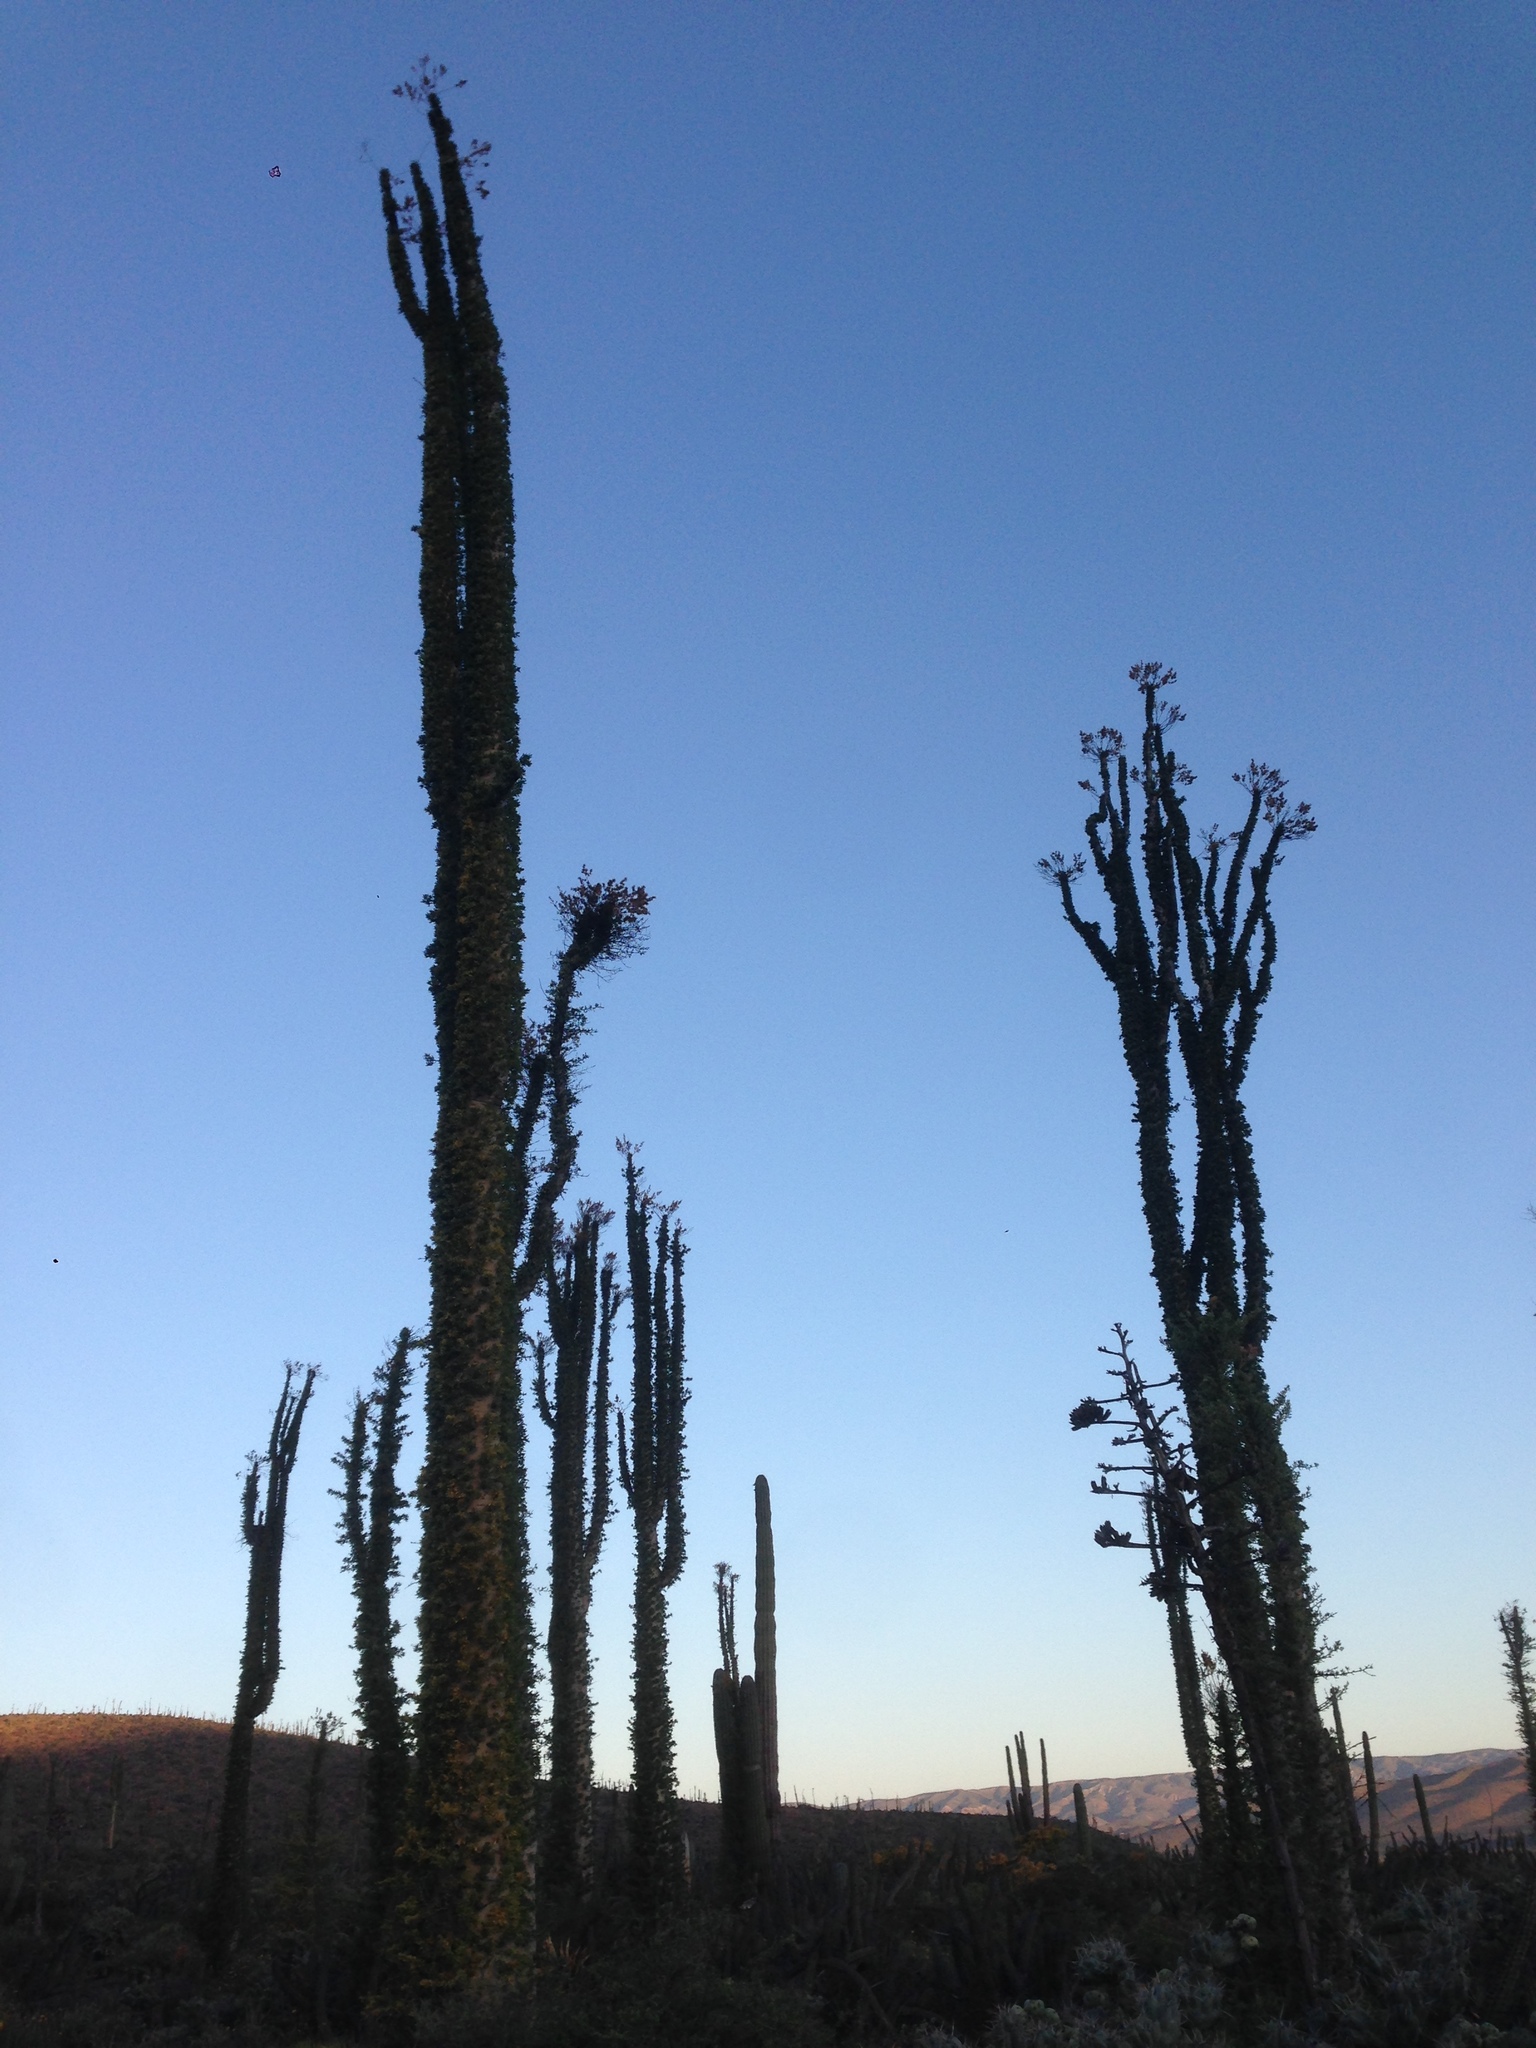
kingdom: Plantae
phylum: Tracheophyta
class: Magnoliopsida
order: Ericales
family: Fouquieriaceae
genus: Fouquieria
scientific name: Fouquieria columnaris
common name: Boojumtree
